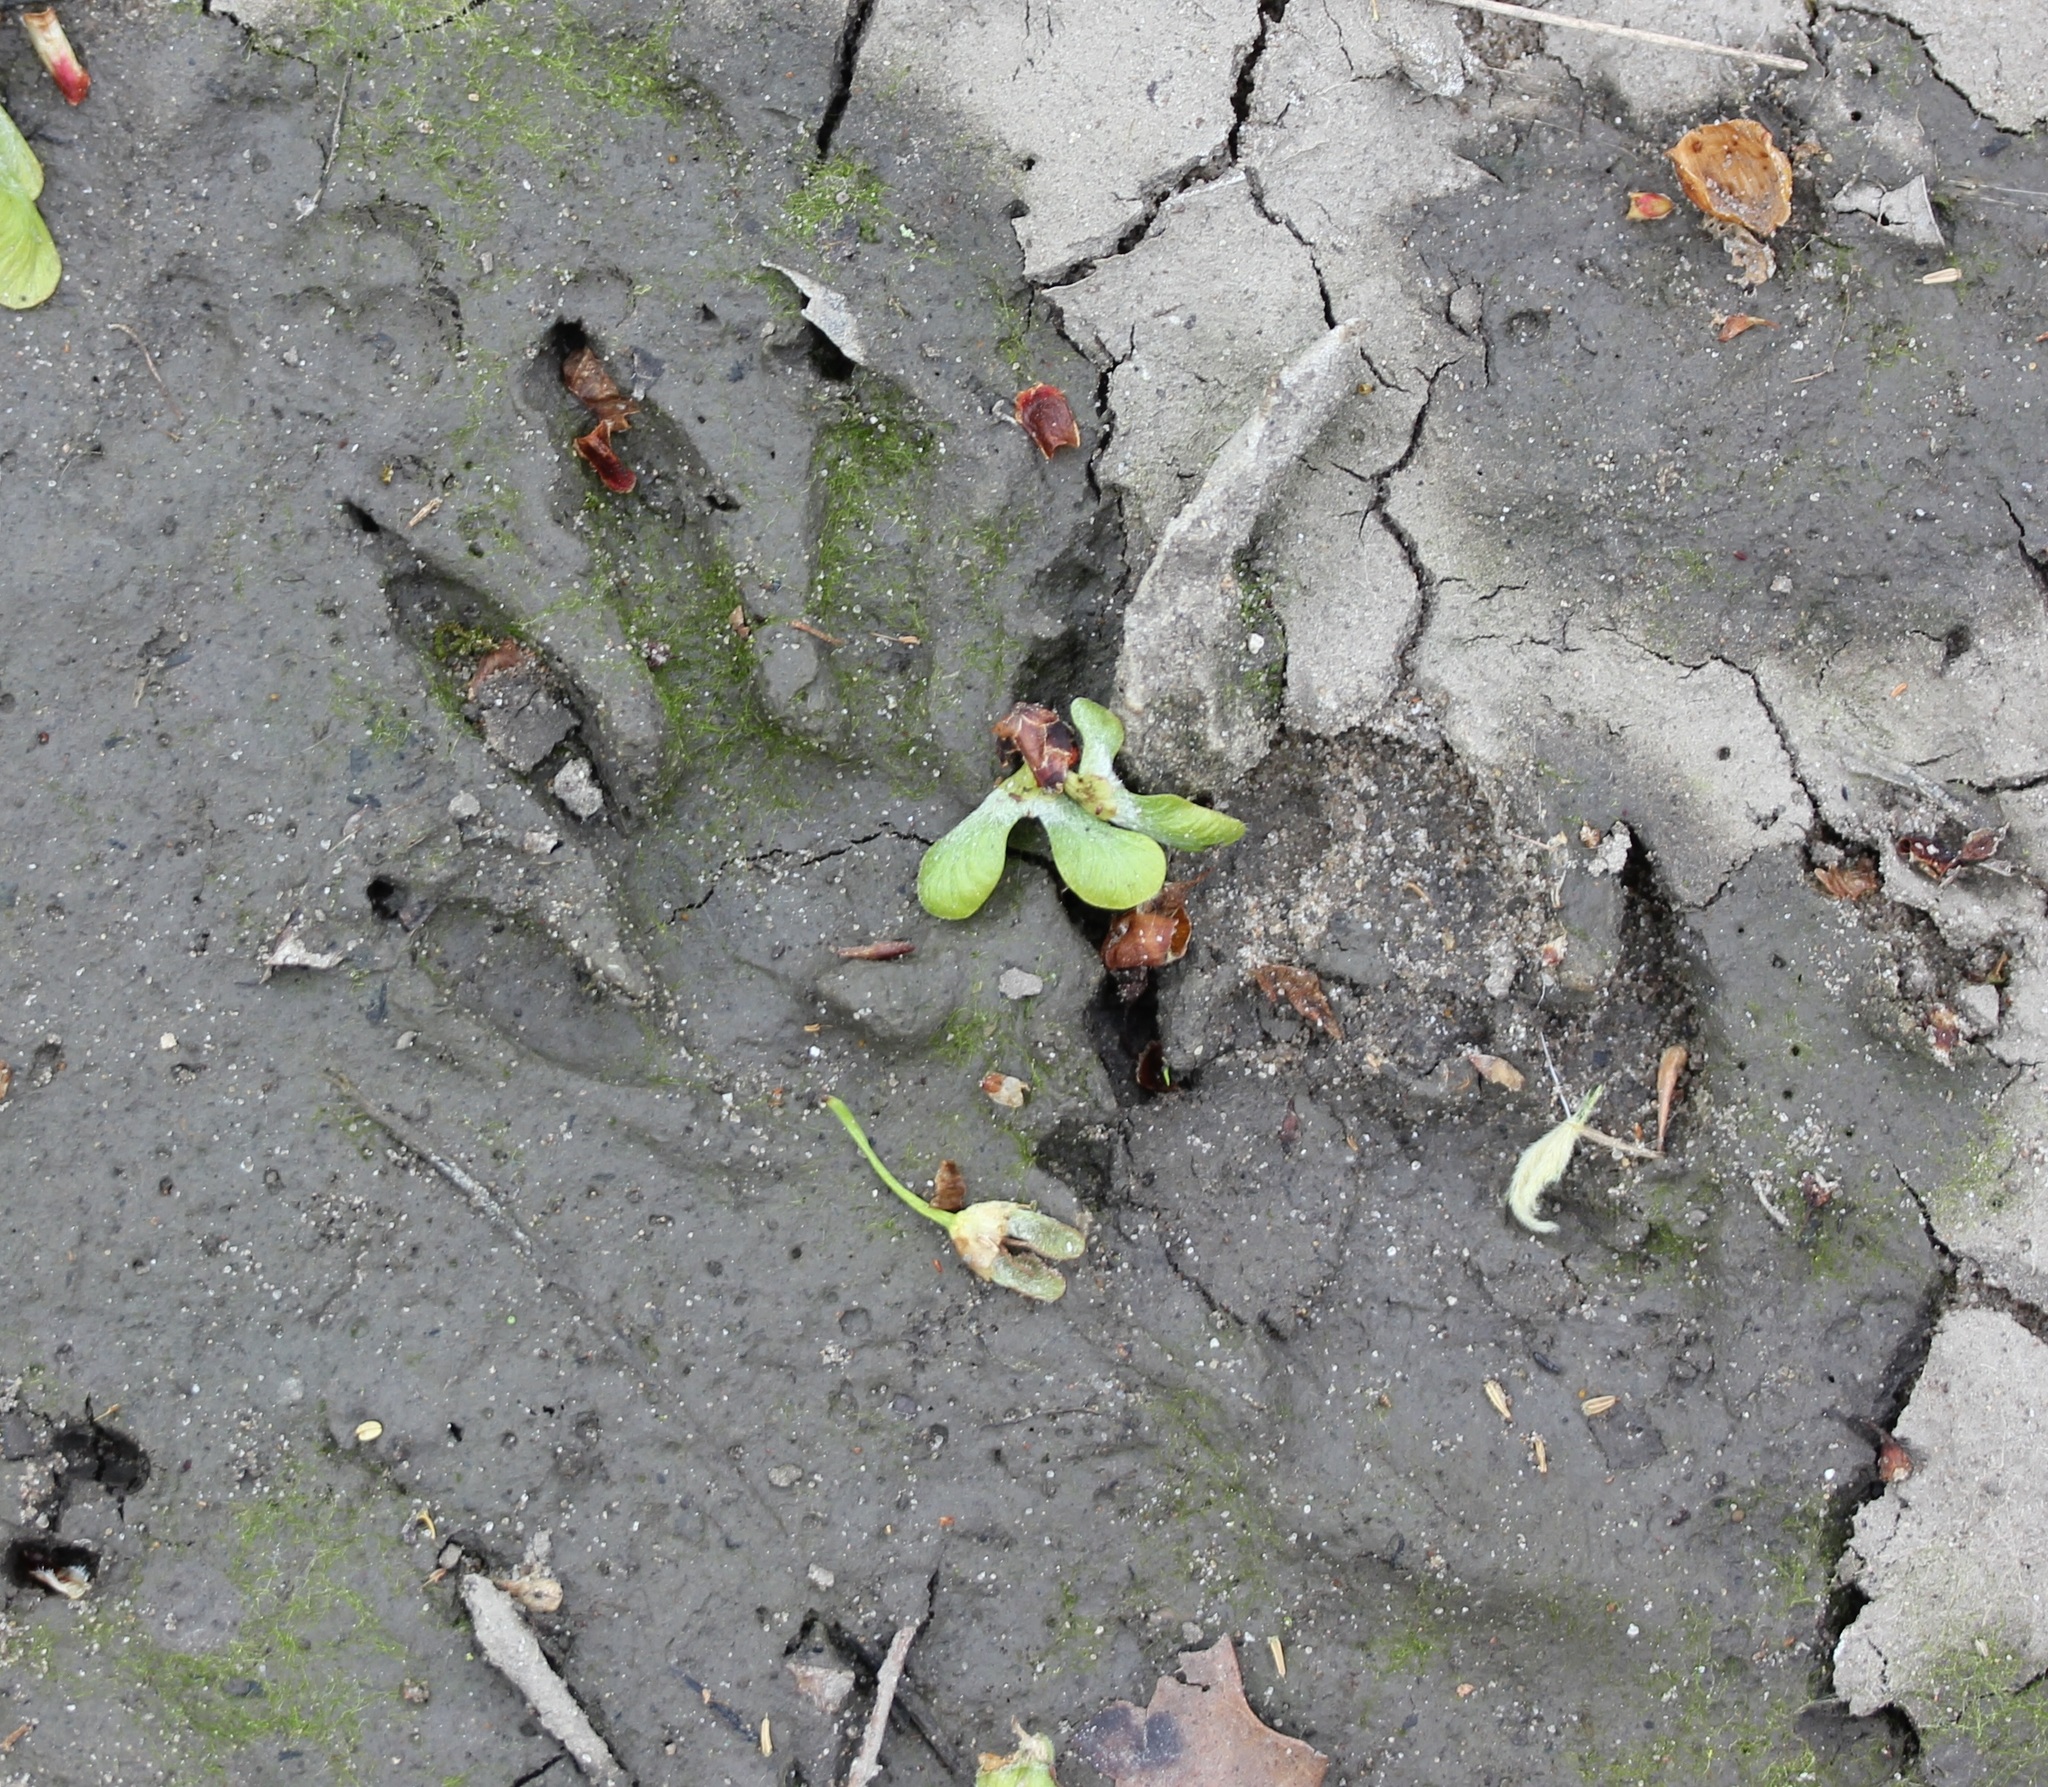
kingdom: Animalia
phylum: Chordata
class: Mammalia
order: Carnivora
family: Procyonidae
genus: Procyon
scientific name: Procyon lotor
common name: Raccoon
